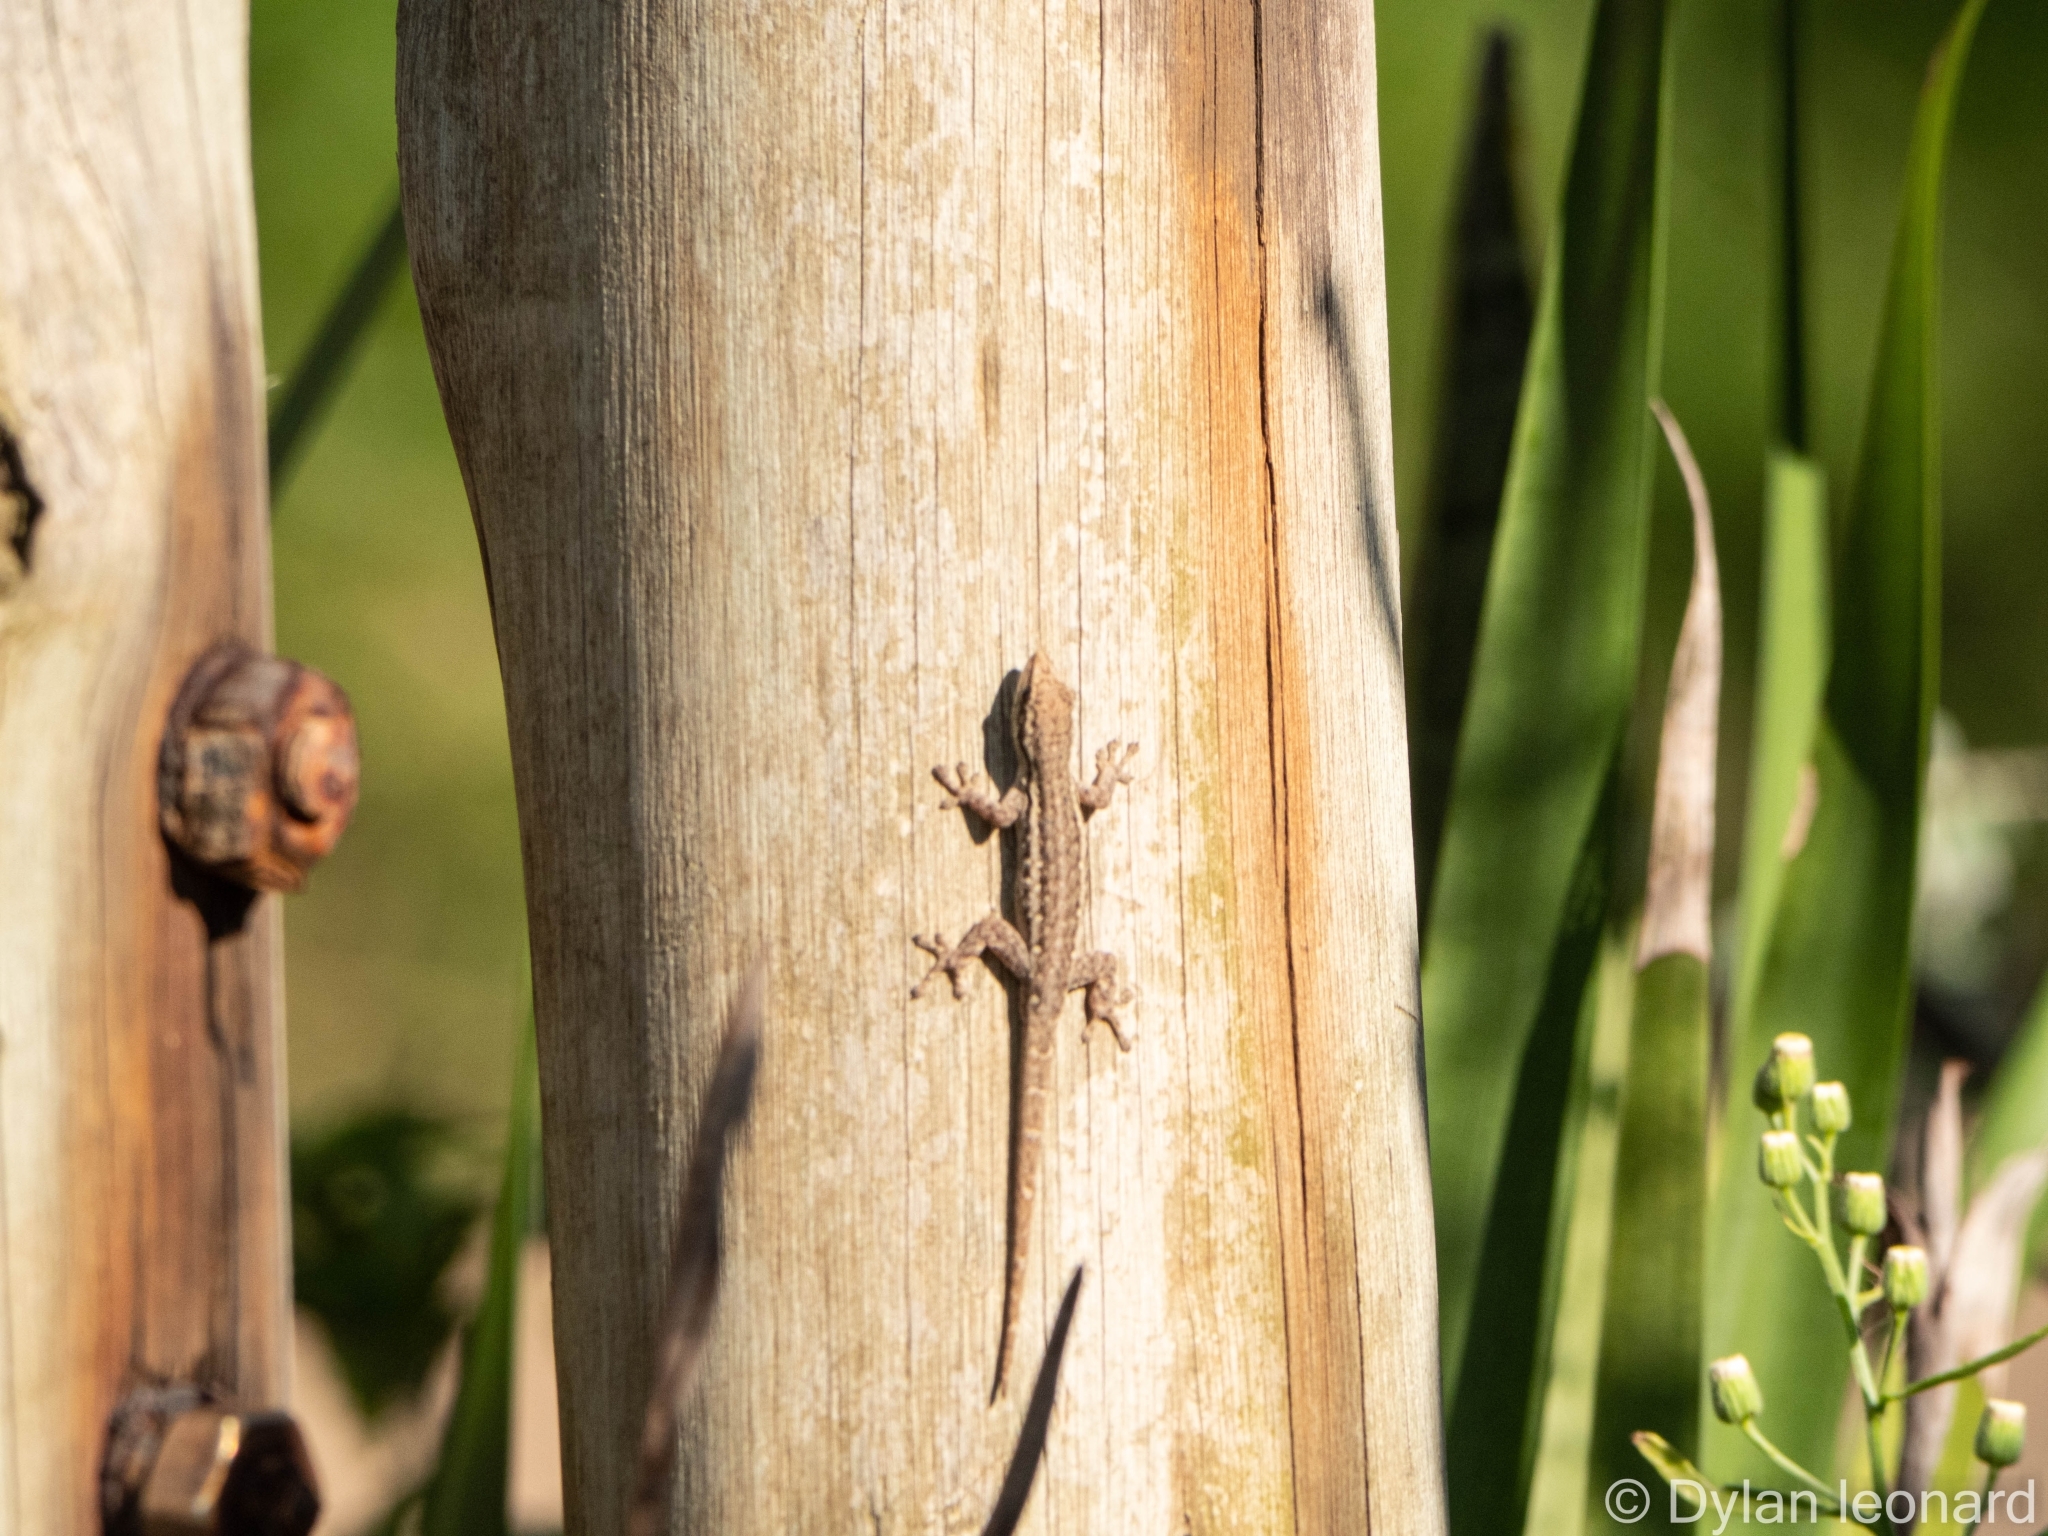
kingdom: Animalia
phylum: Chordata
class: Squamata
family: Gekkonidae
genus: Lygodactylus
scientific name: Lygodactylus capensis
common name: Cape dwarf gecko
